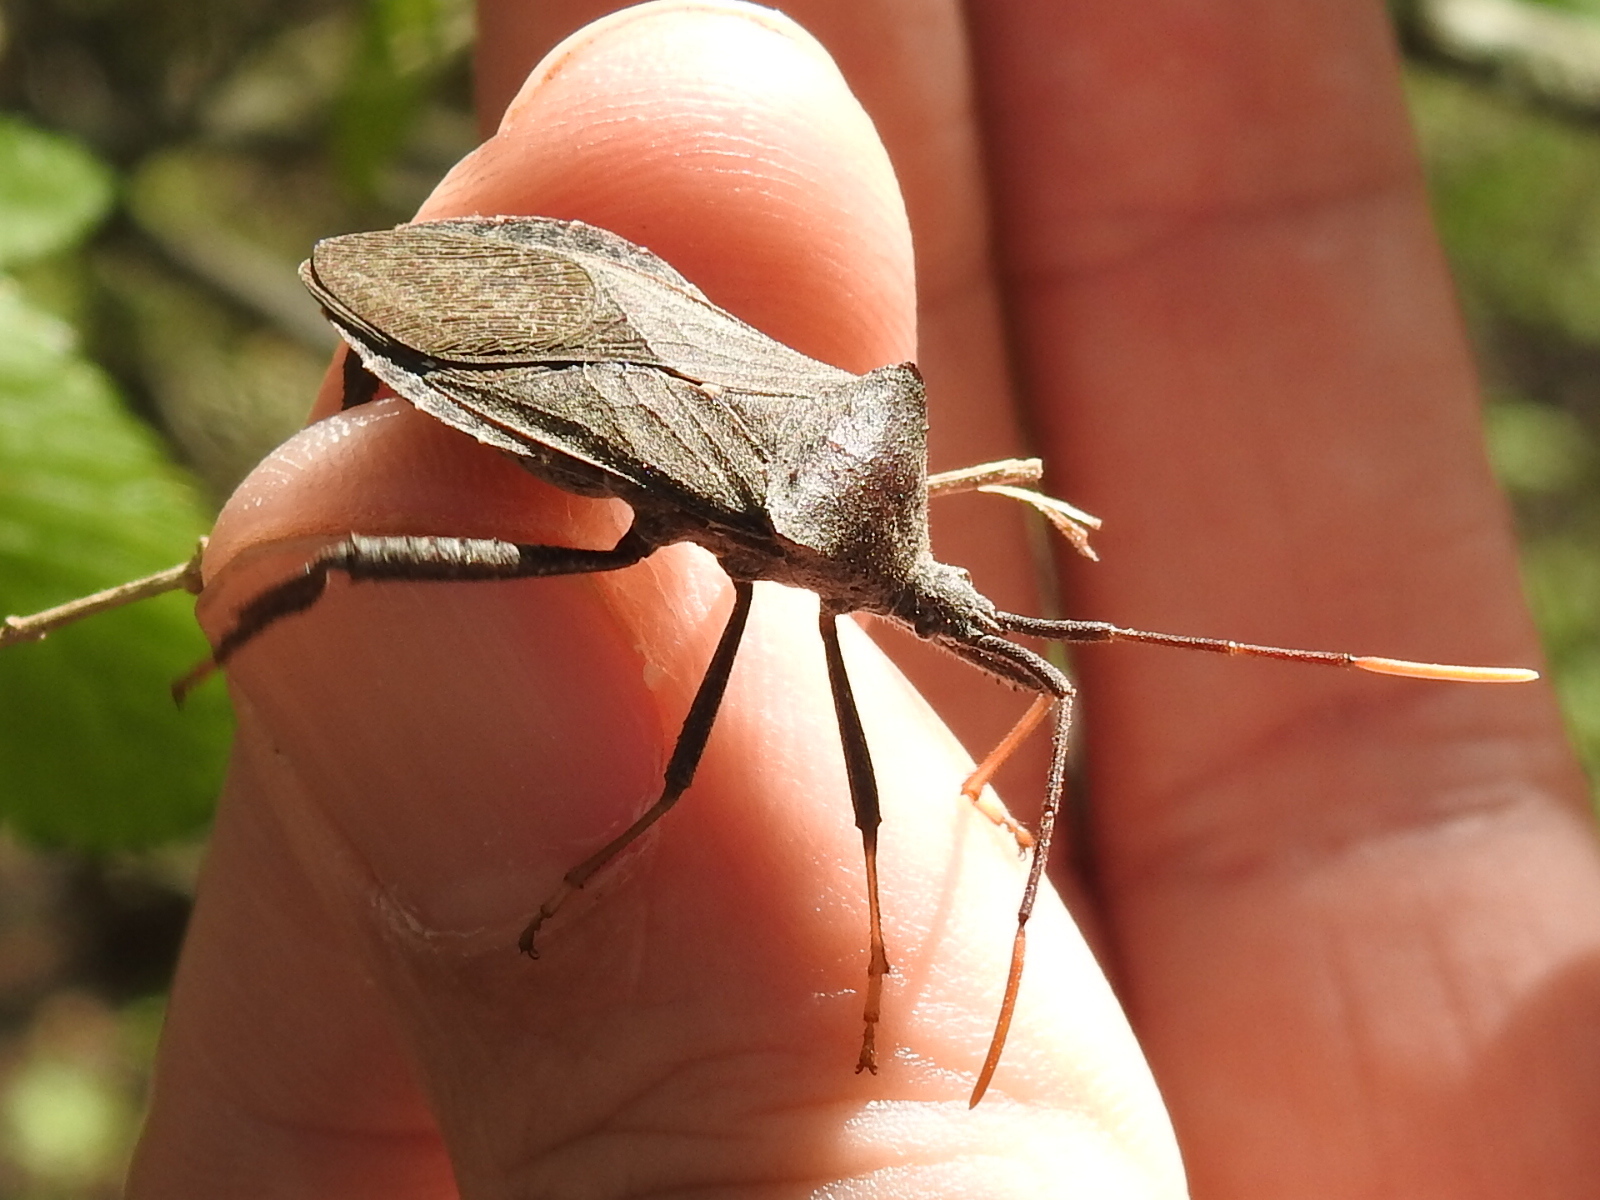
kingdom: Animalia
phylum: Arthropoda
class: Insecta
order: Hemiptera
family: Coreidae
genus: Acanthocephala
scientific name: Acanthocephala terminalis
